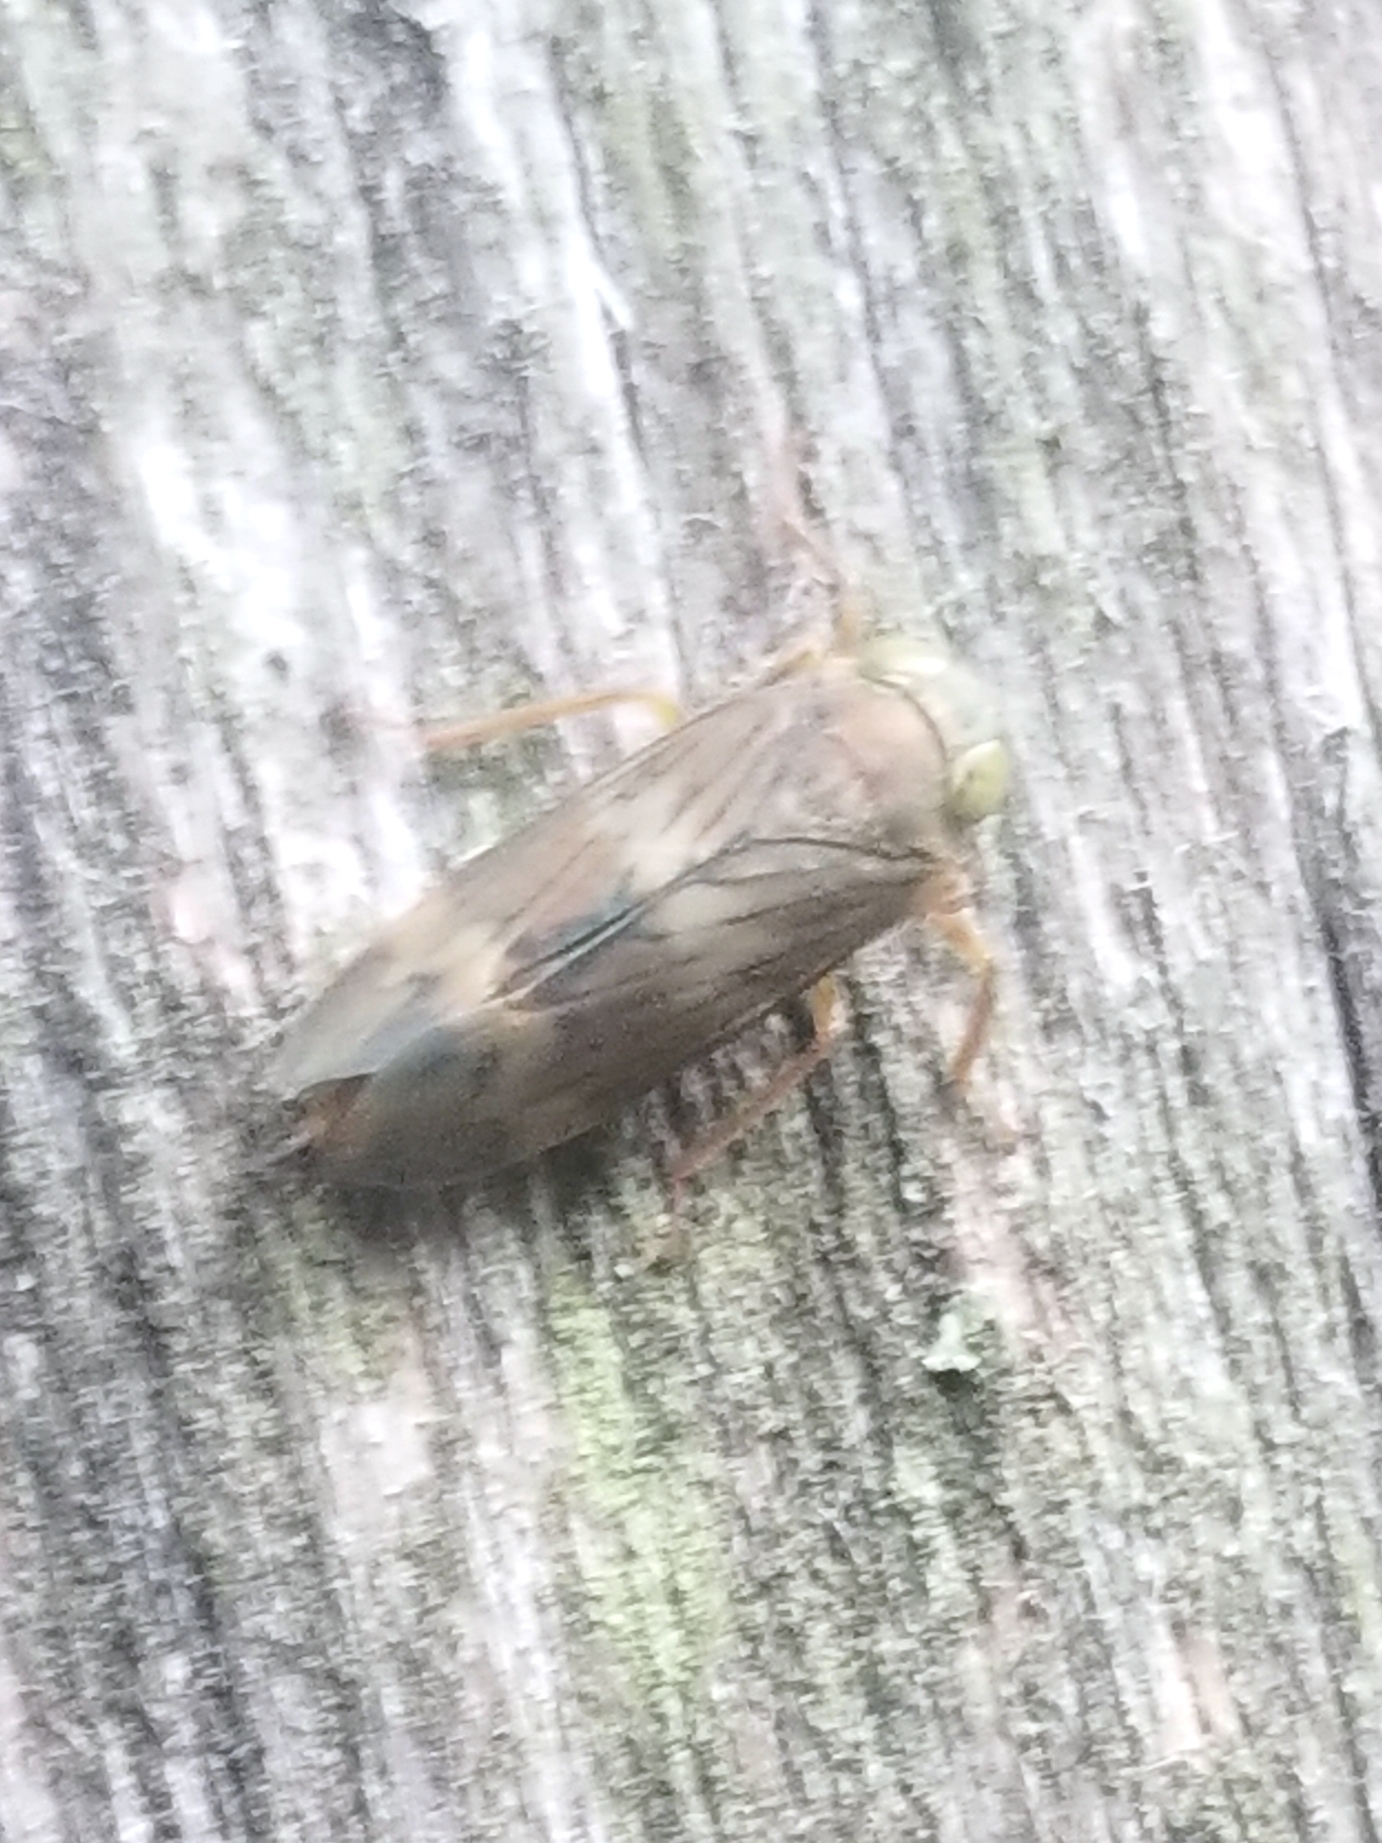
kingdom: Animalia
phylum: Arthropoda
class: Insecta
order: Hemiptera
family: Cicadellidae
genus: Jikradia
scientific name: Jikradia olitoria
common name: Coppery leafhopper
